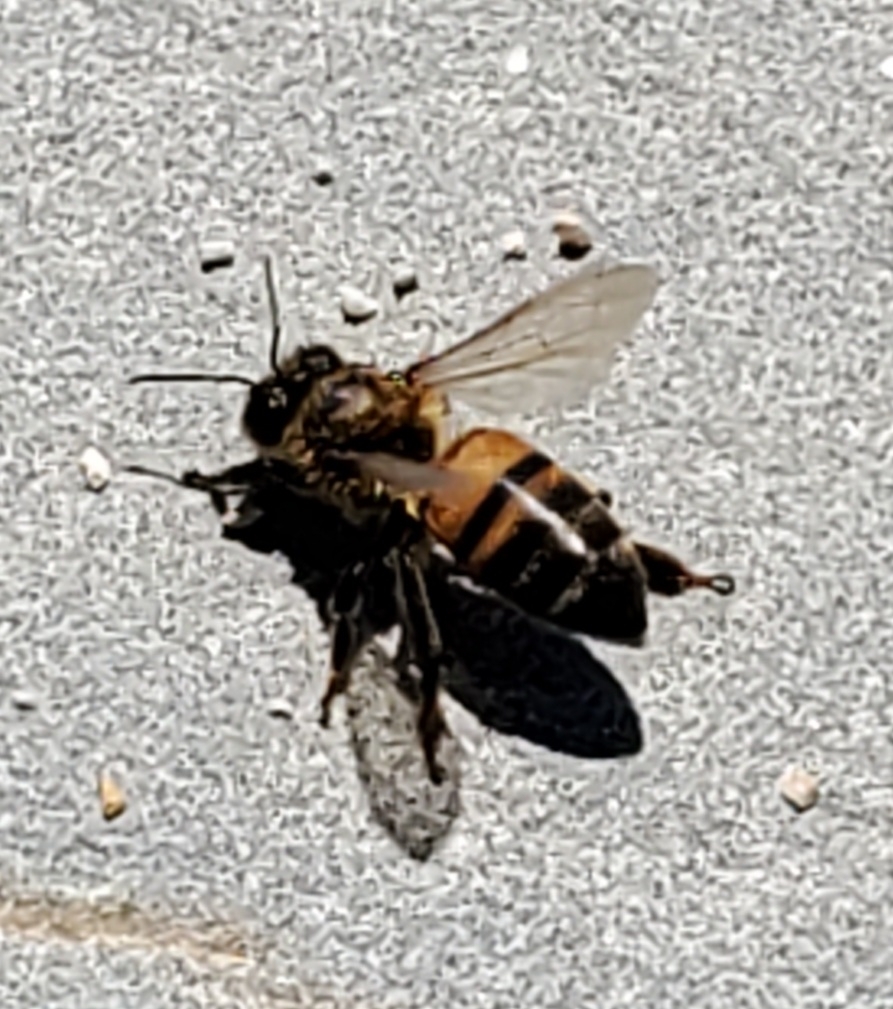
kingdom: Animalia
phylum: Arthropoda
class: Insecta
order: Hymenoptera
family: Apidae
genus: Apis
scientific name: Apis mellifera
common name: Honey bee
